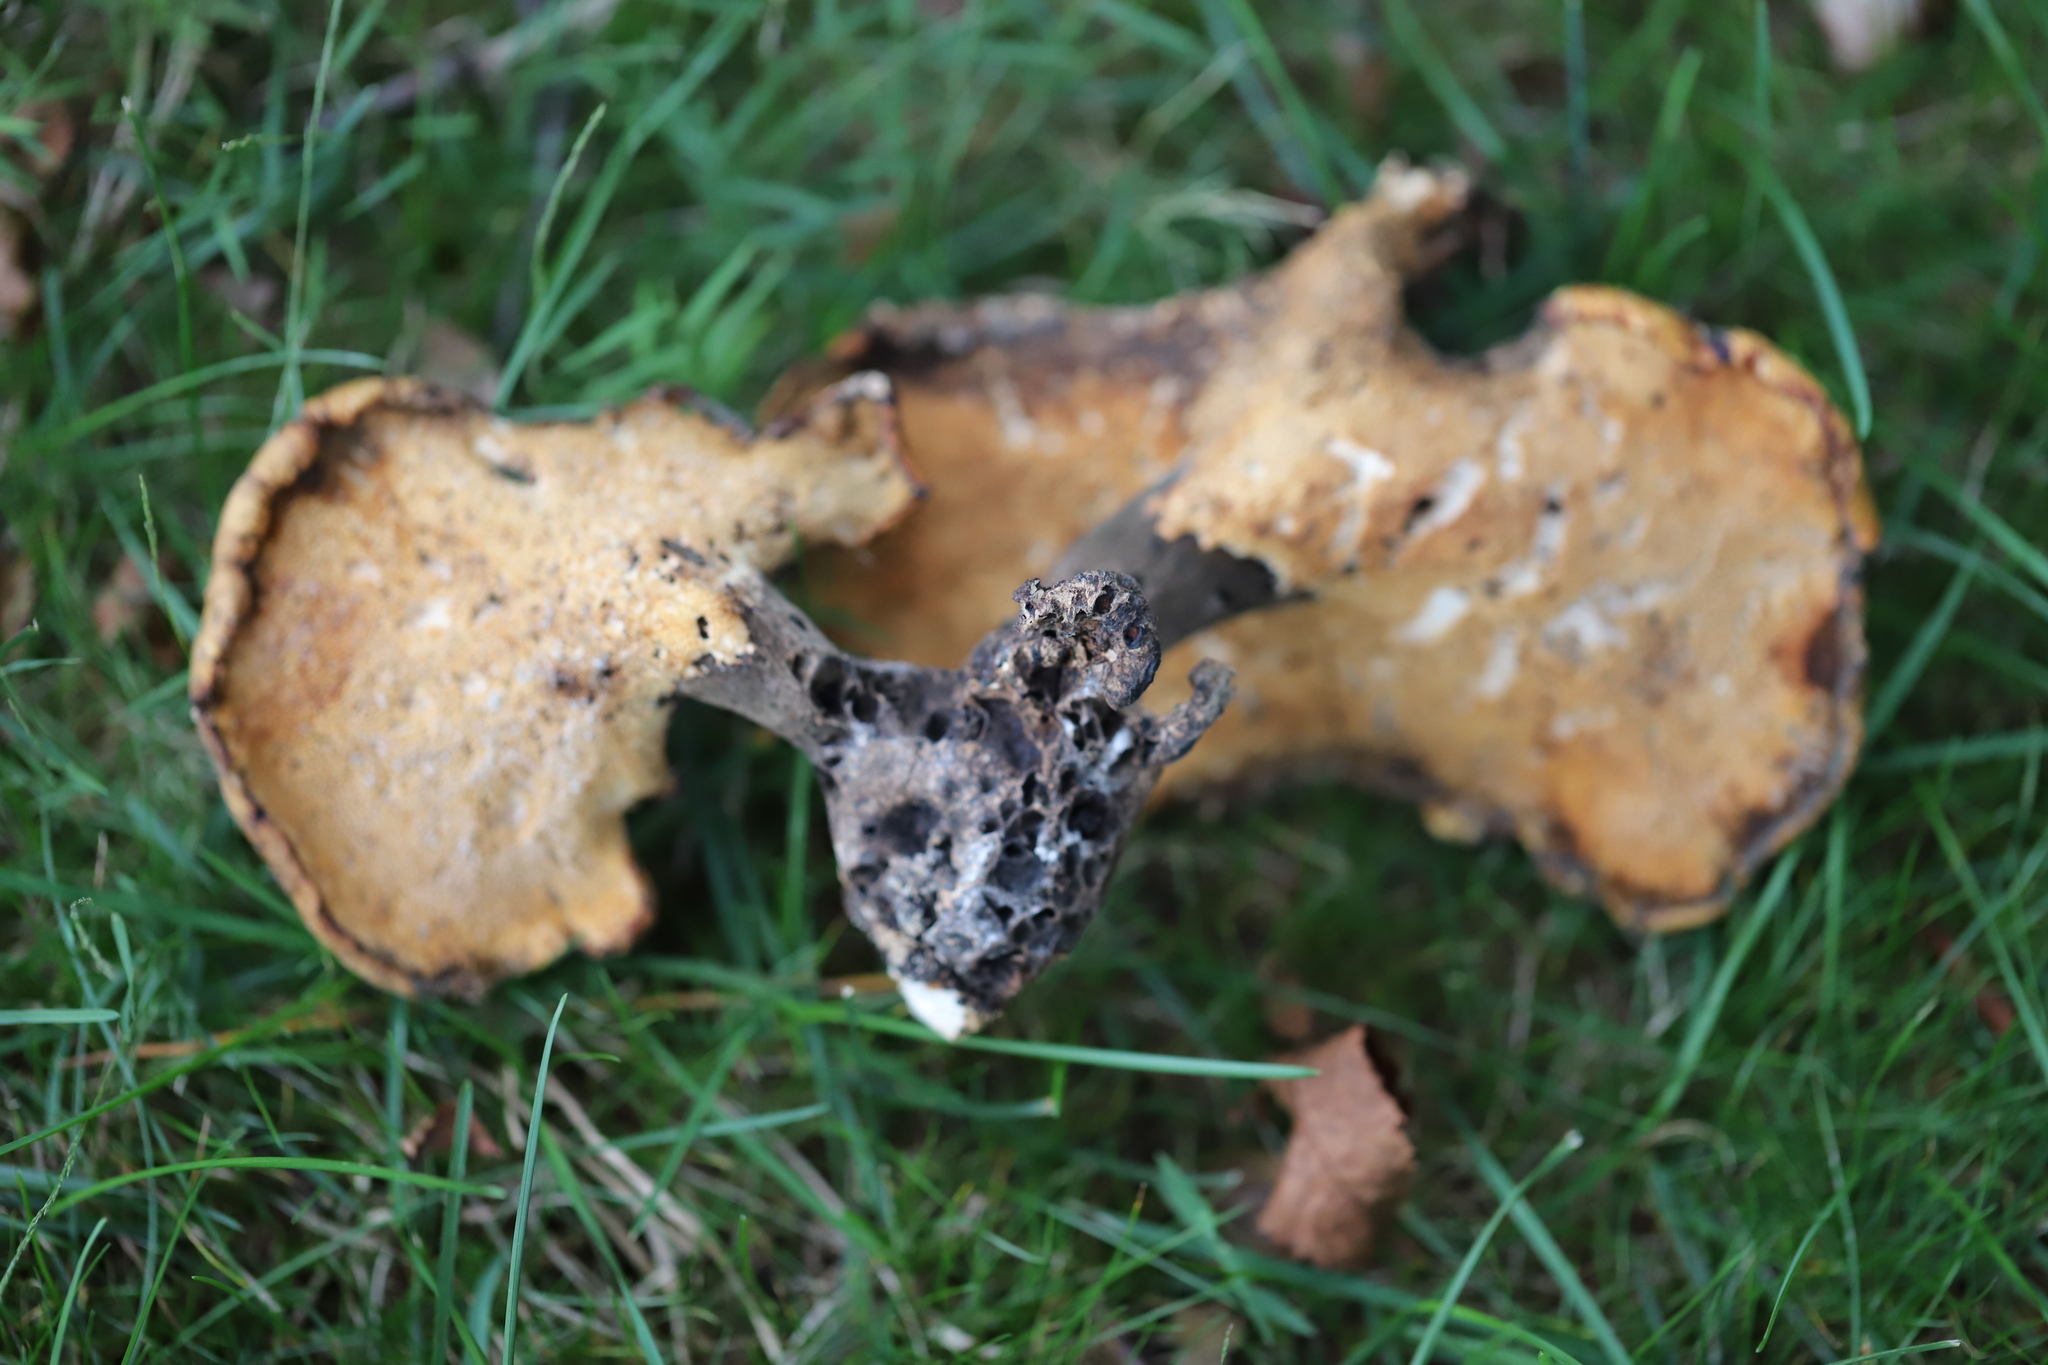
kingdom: Fungi
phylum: Basidiomycota
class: Agaricomycetes
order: Polyporales
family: Polyporaceae
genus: Cerioporus
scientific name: Cerioporus squamosus
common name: Dryad's saddle
